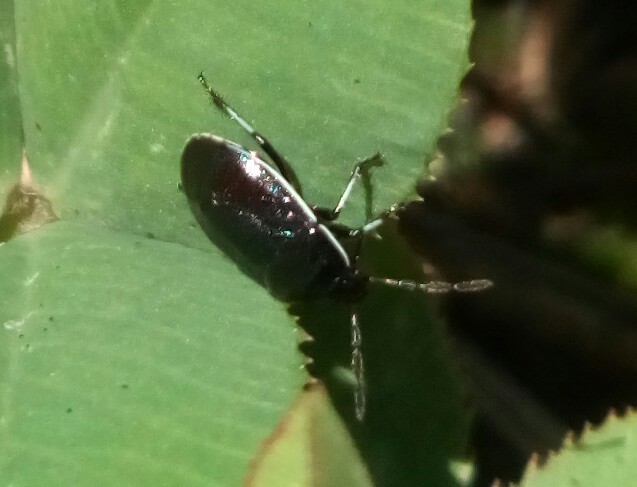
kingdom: Animalia
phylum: Arthropoda
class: Insecta
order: Hemiptera
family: Cydnidae
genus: Sehirus
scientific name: Sehirus cinctus
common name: White-margined burrower bug
